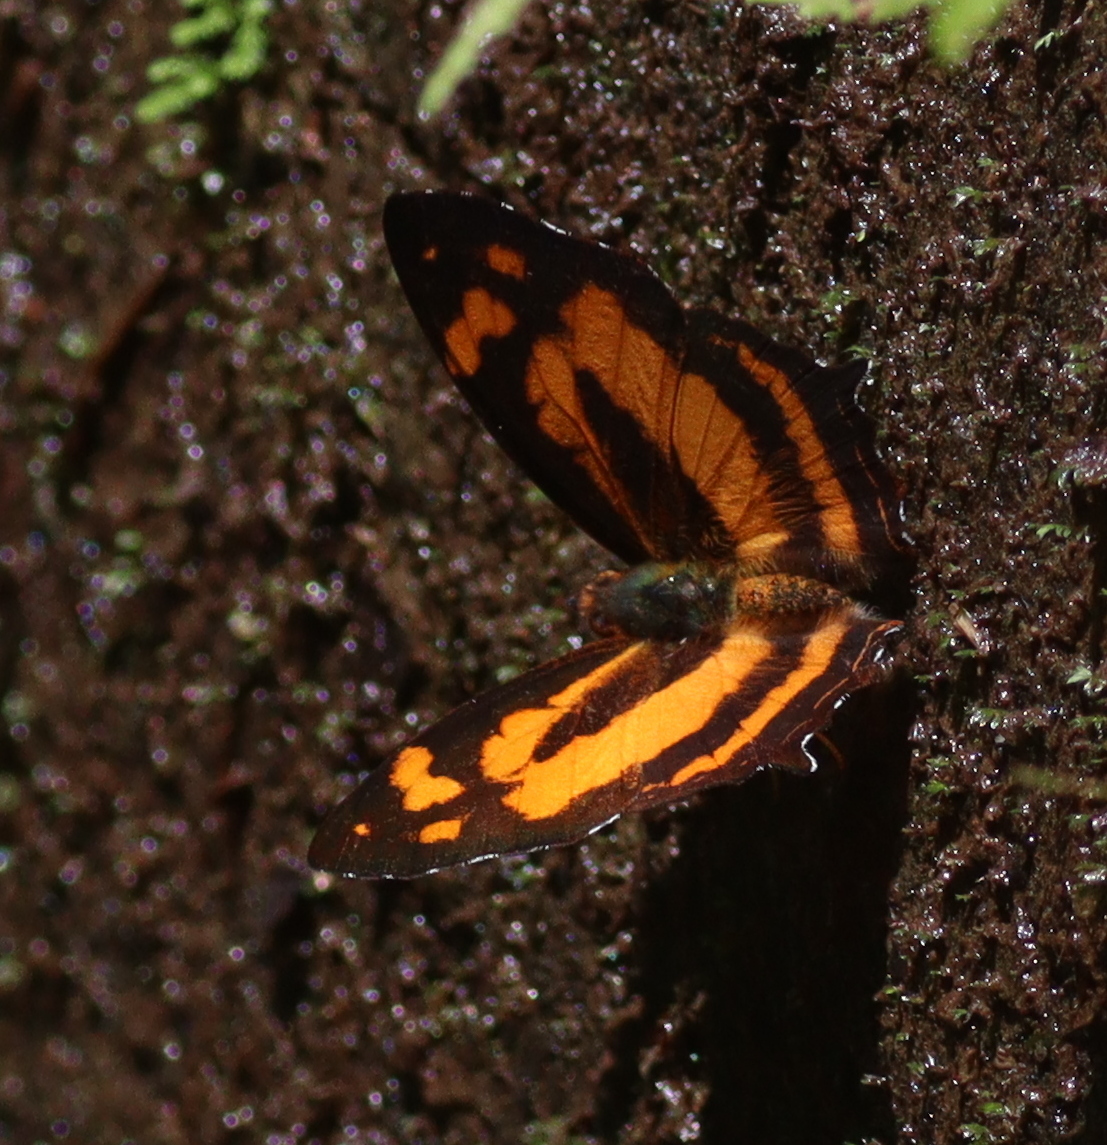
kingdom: Animalia
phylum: Arthropoda
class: Insecta
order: Lepidoptera
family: Nymphalidae
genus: Symbrenthia
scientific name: Symbrenthia hypselis
